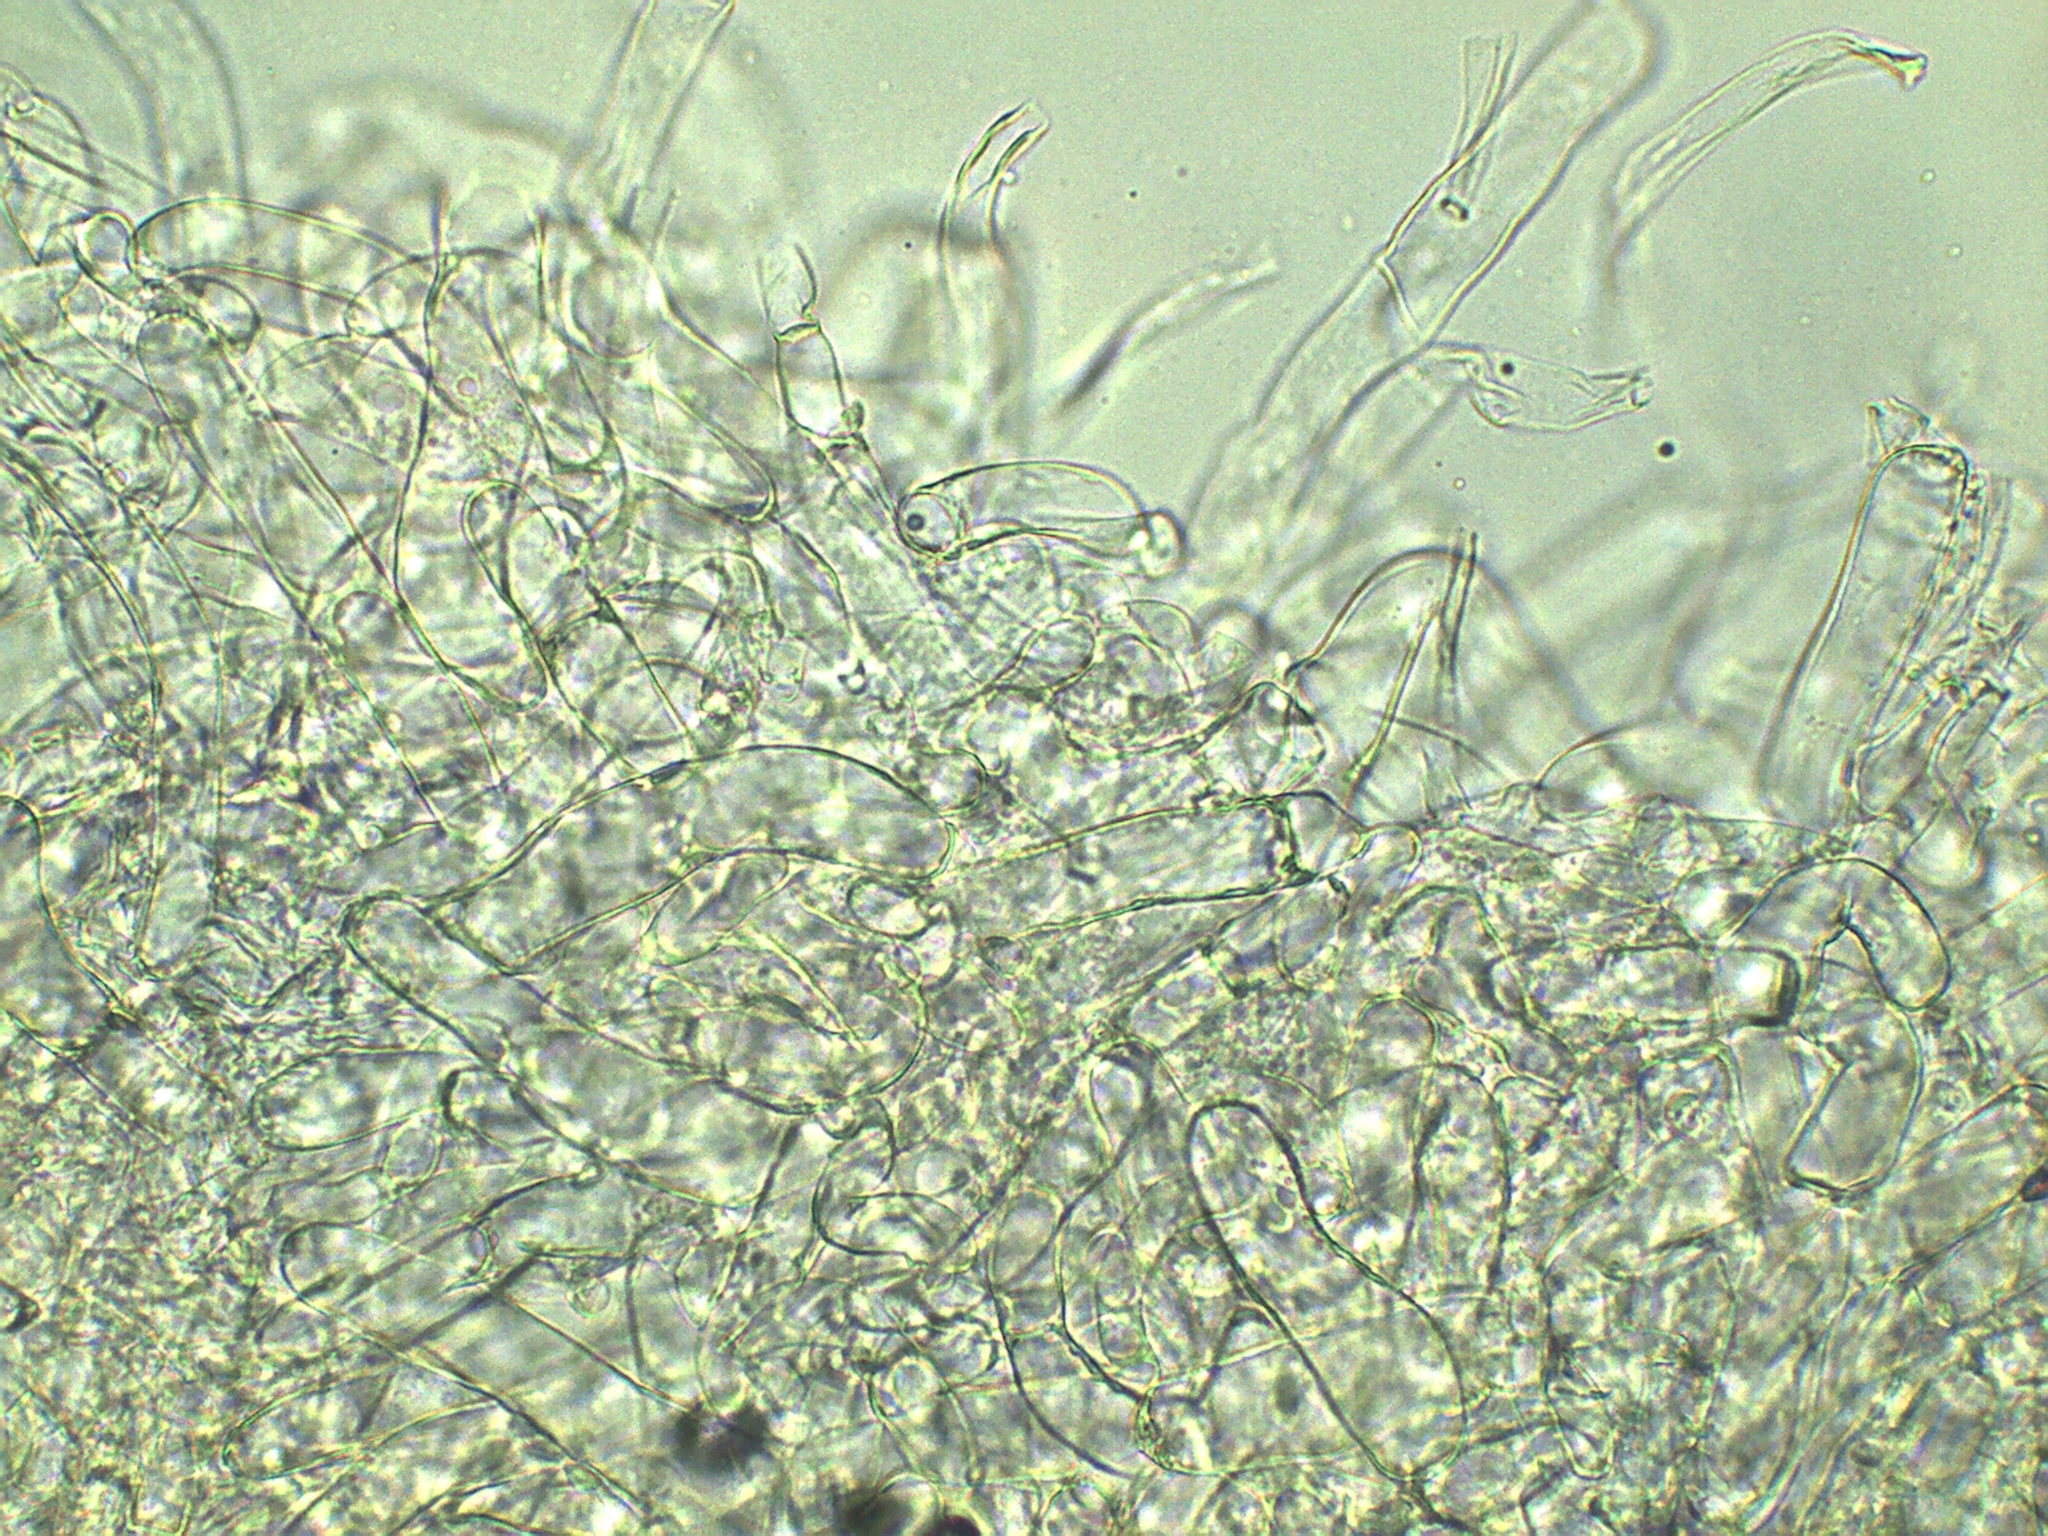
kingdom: Fungi
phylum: Basidiomycota
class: Agaricomycetes
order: Agaricales
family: Tricholomataceae
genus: Collybia
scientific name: Collybia alboflavida
